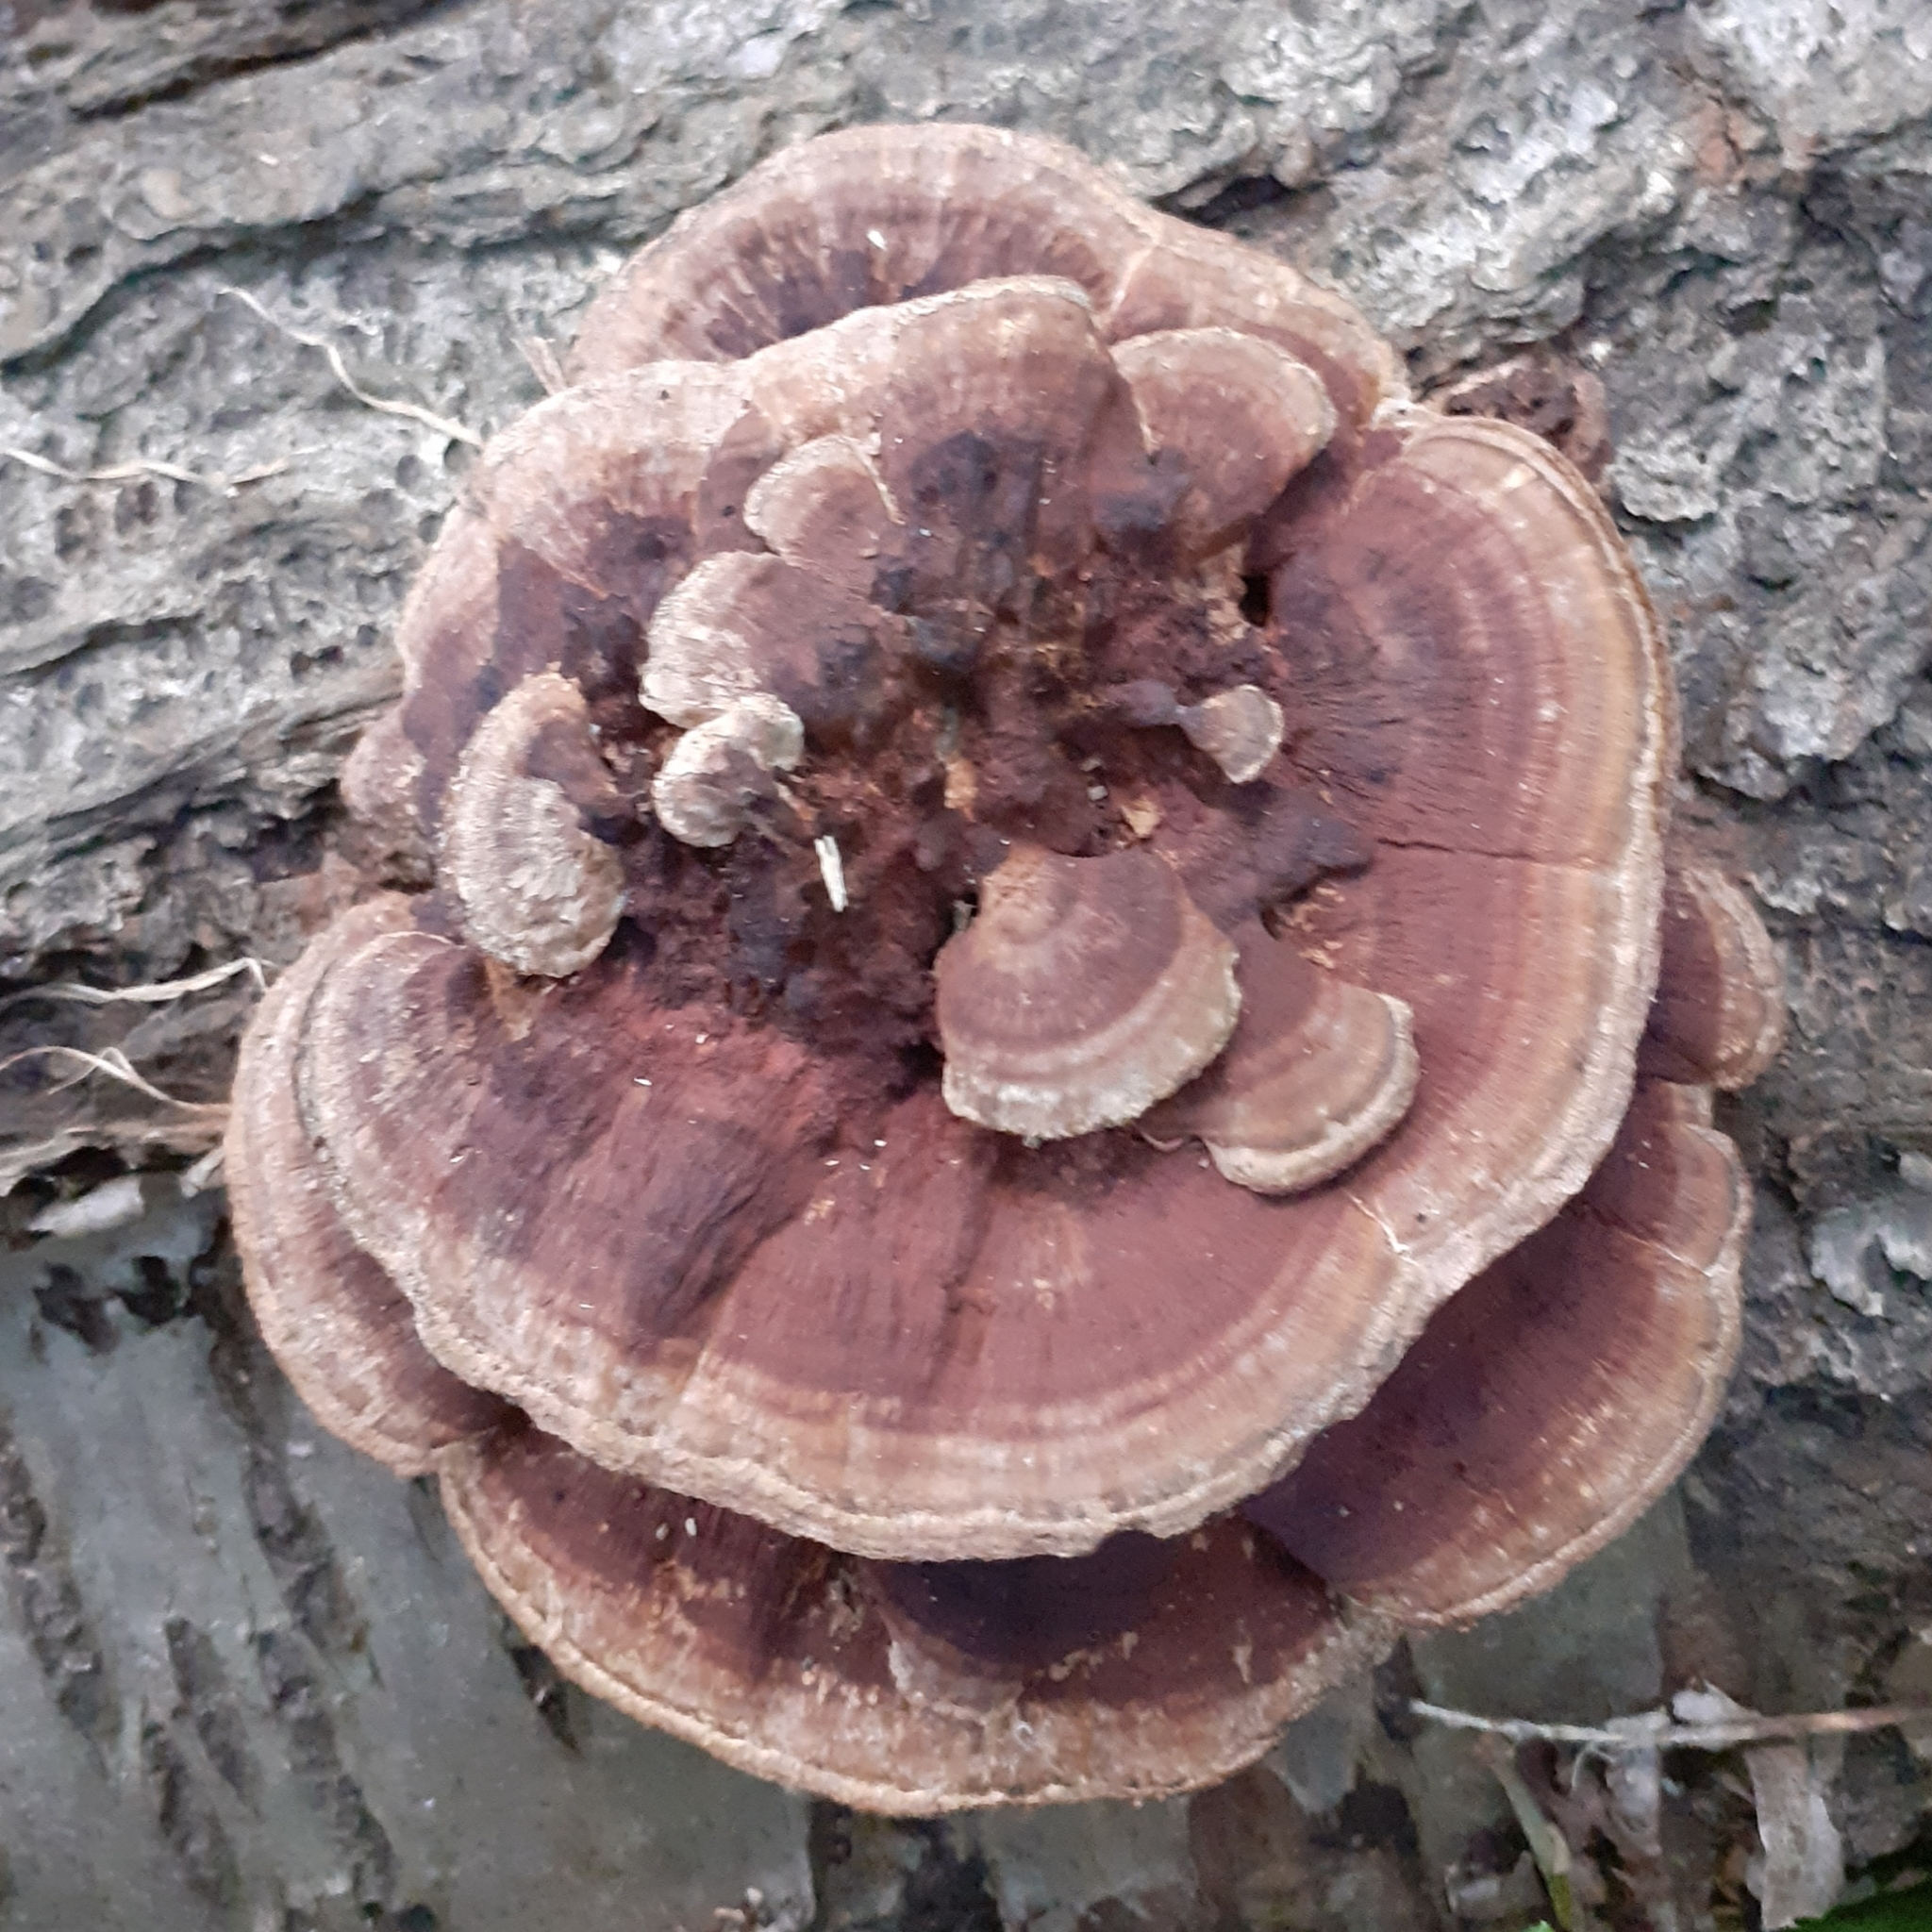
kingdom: Fungi
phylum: Basidiomycota
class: Agaricomycetes
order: Polyporales
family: Polyporaceae
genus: Daedaleopsis
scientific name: Daedaleopsis tricolor
